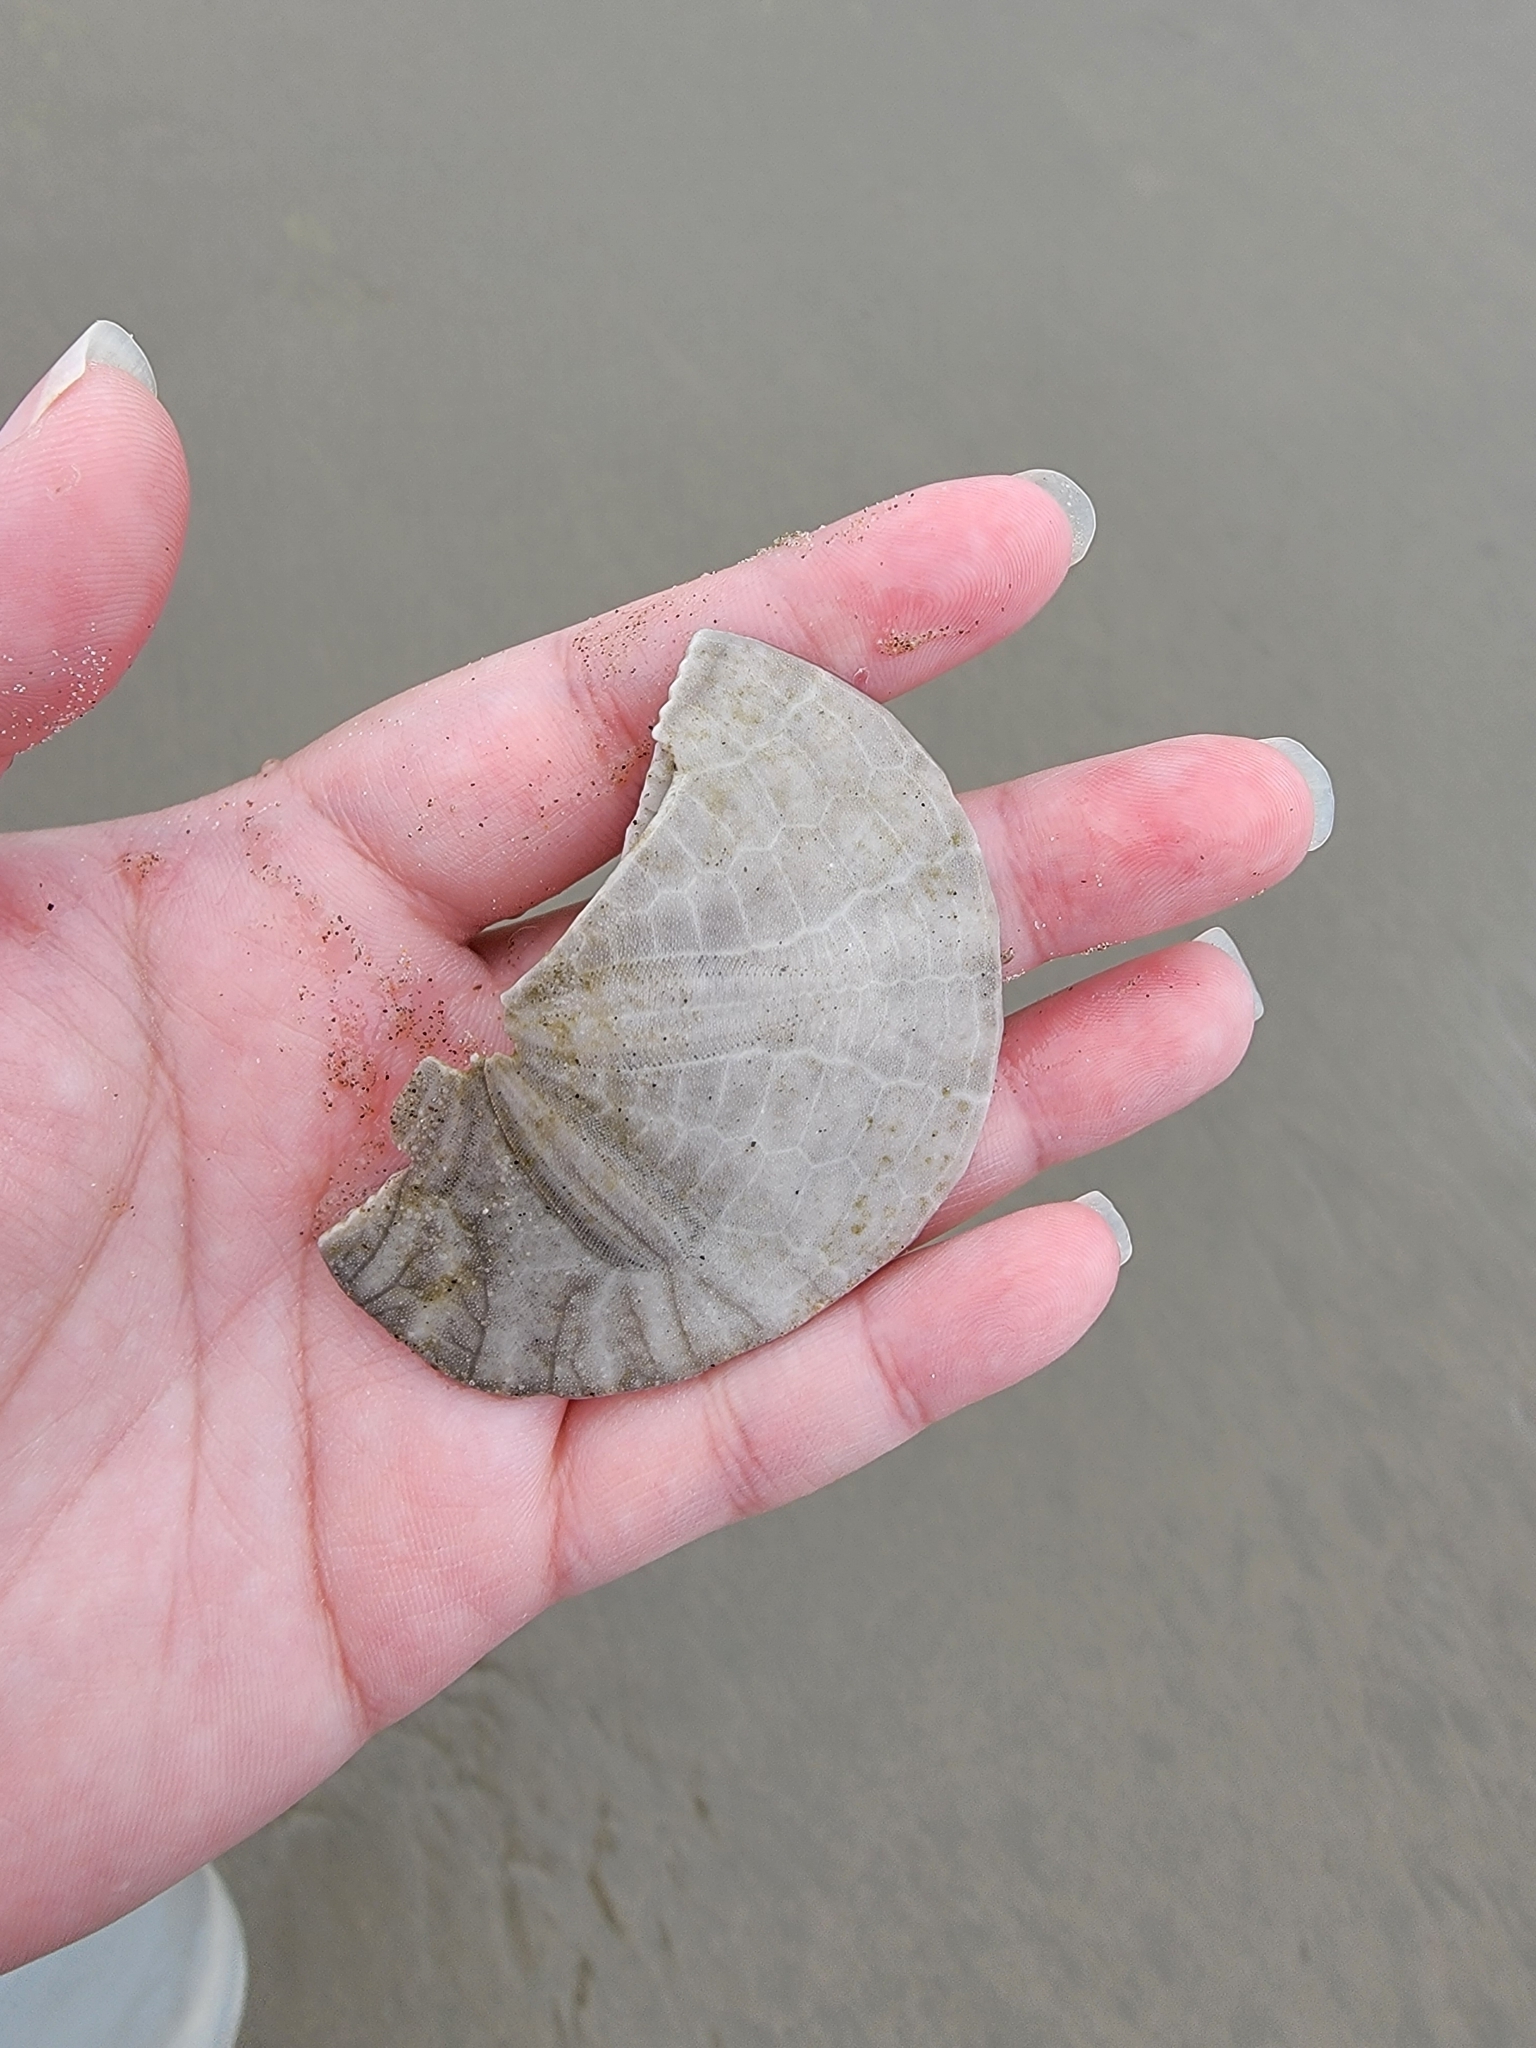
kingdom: Animalia
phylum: Echinodermata
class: Echinoidea
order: Echinolampadacea
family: Dendrasteridae
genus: Dendraster
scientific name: Dendraster excentricus
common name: Eccentric sand dollar sea urchin
